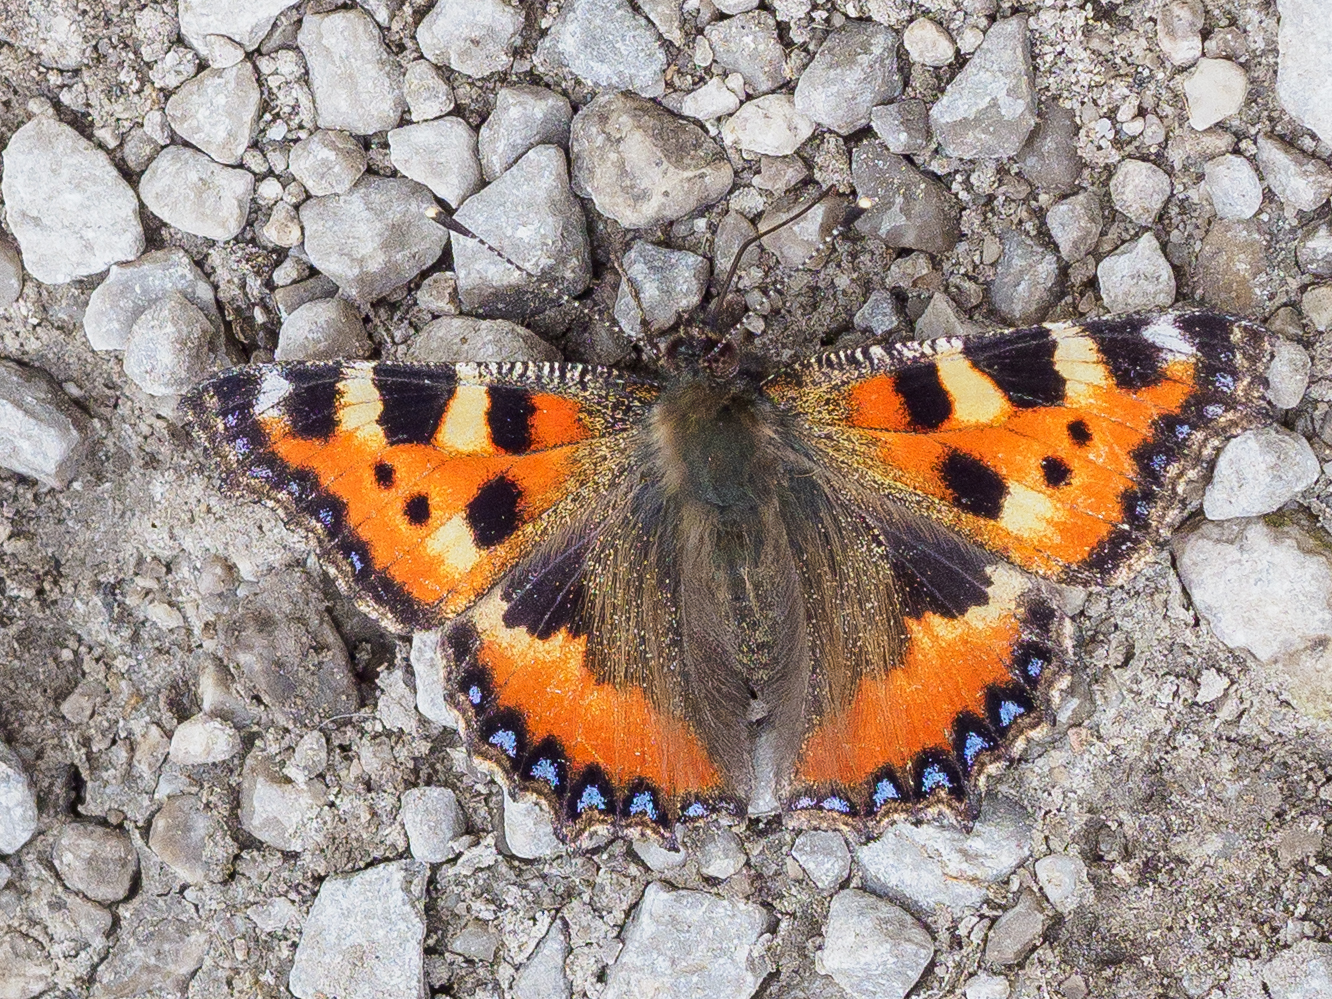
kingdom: Animalia
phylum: Arthropoda
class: Insecta
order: Lepidoptera
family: Nymphalidae
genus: Aglais
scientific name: Aglais urticae
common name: Small tortoiseshell
